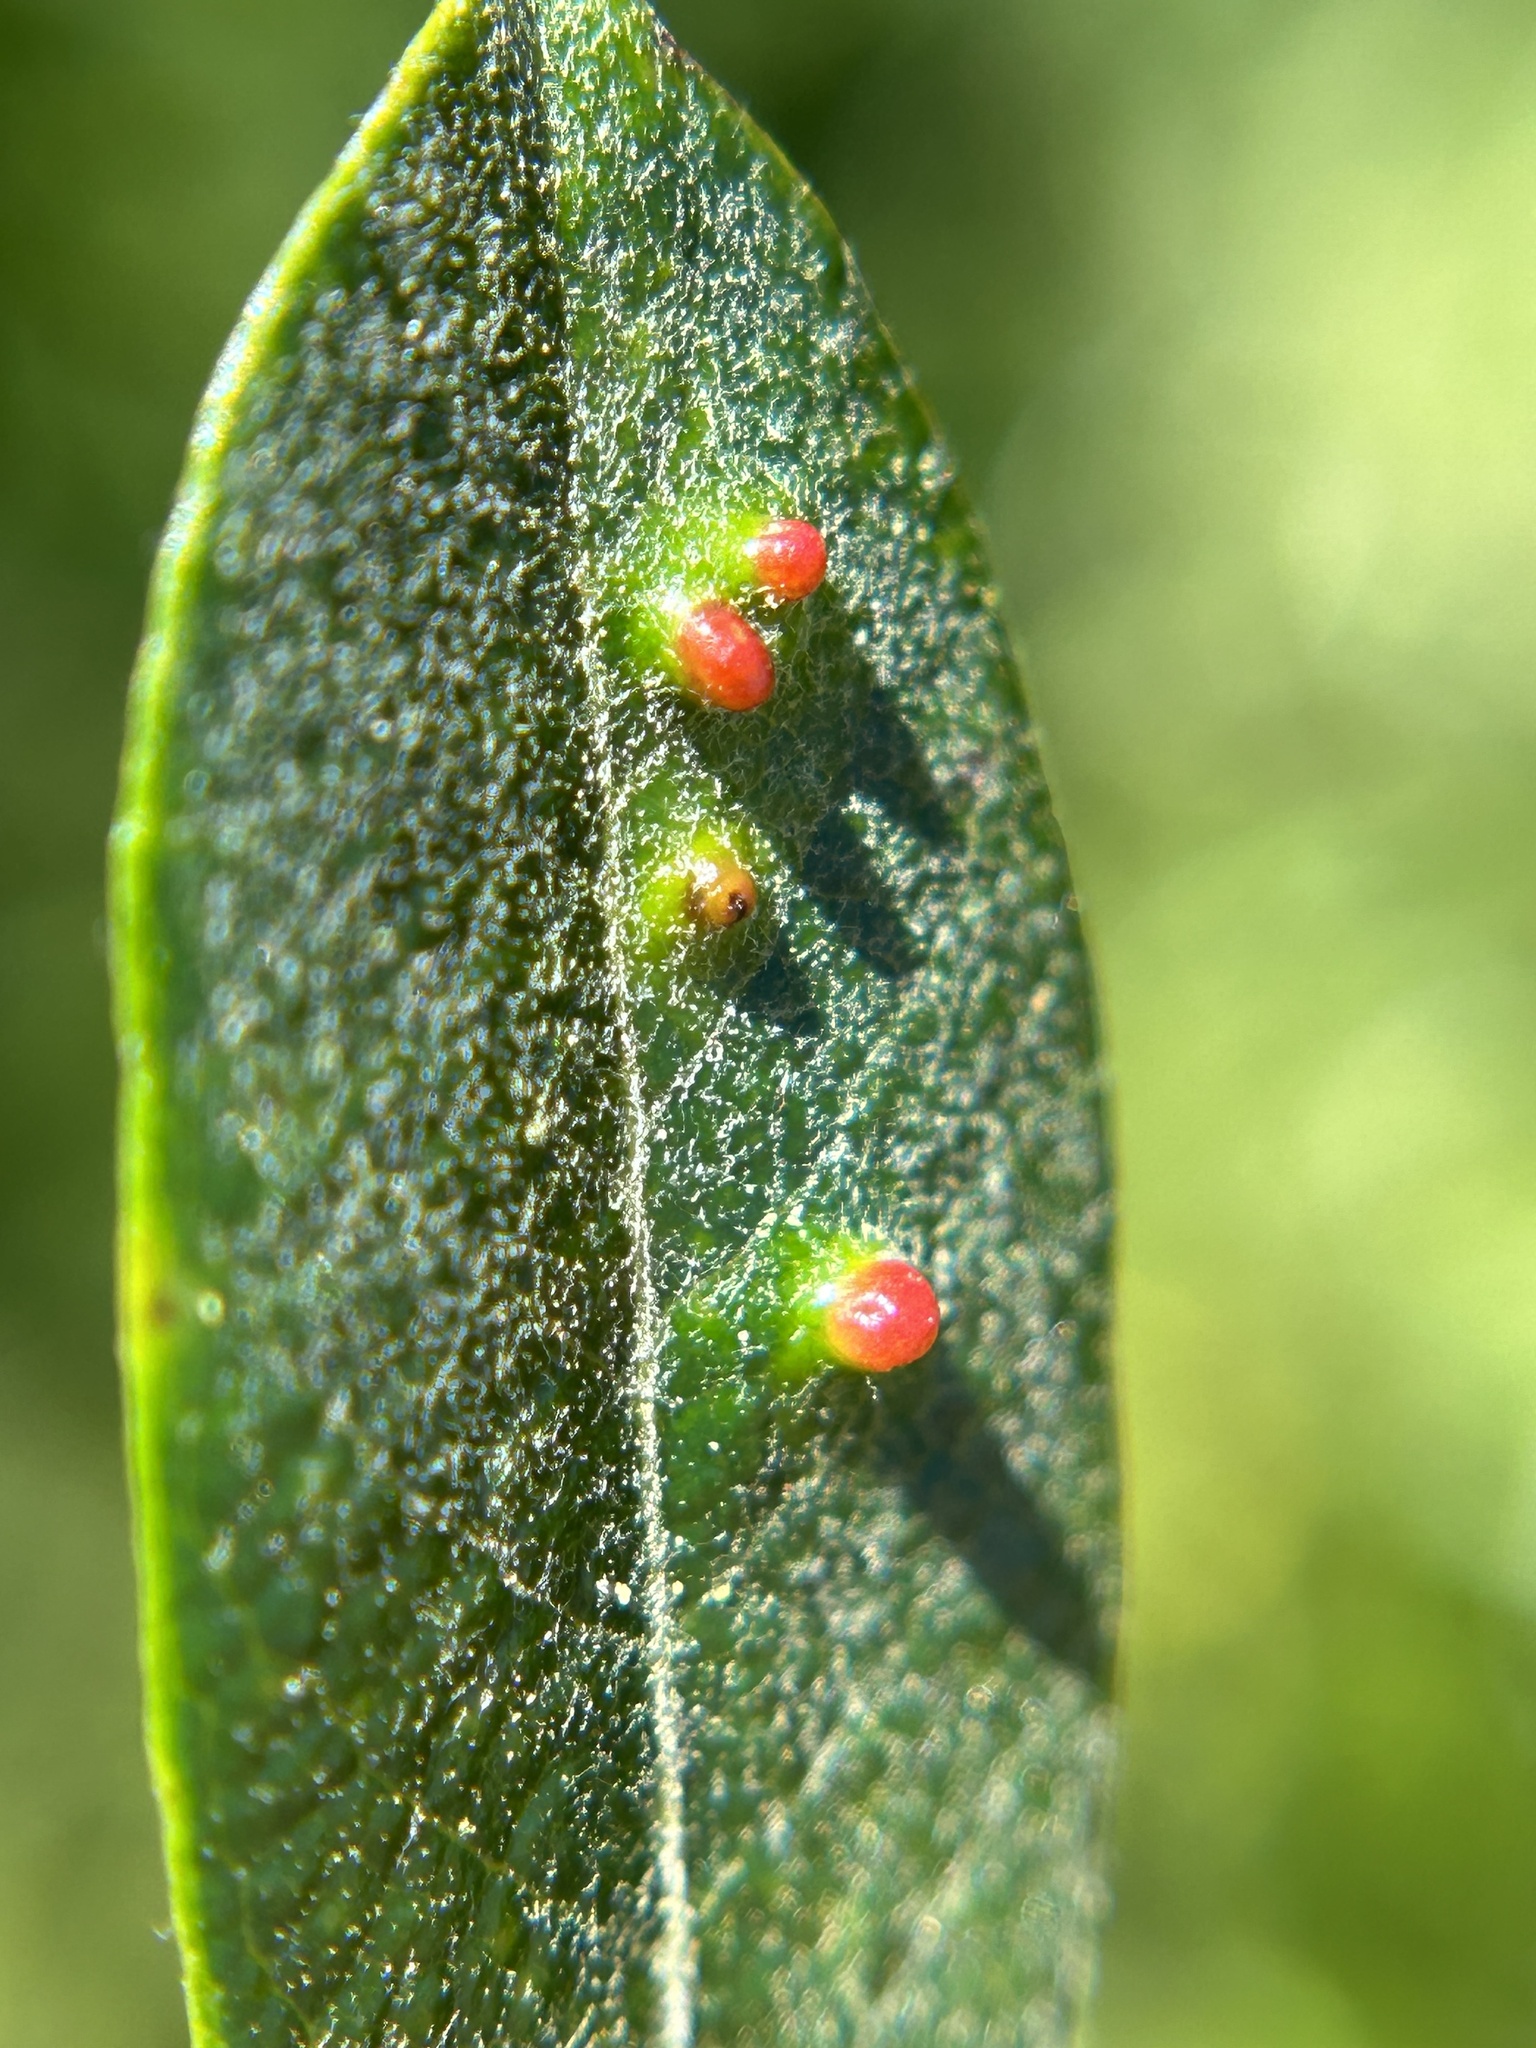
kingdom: Animalia
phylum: Arthropoda
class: Arachnida
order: Trombidiformes
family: Eriophyidae
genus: Aculus
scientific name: Aculus tetanothrix
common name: Willow bead gall mite
